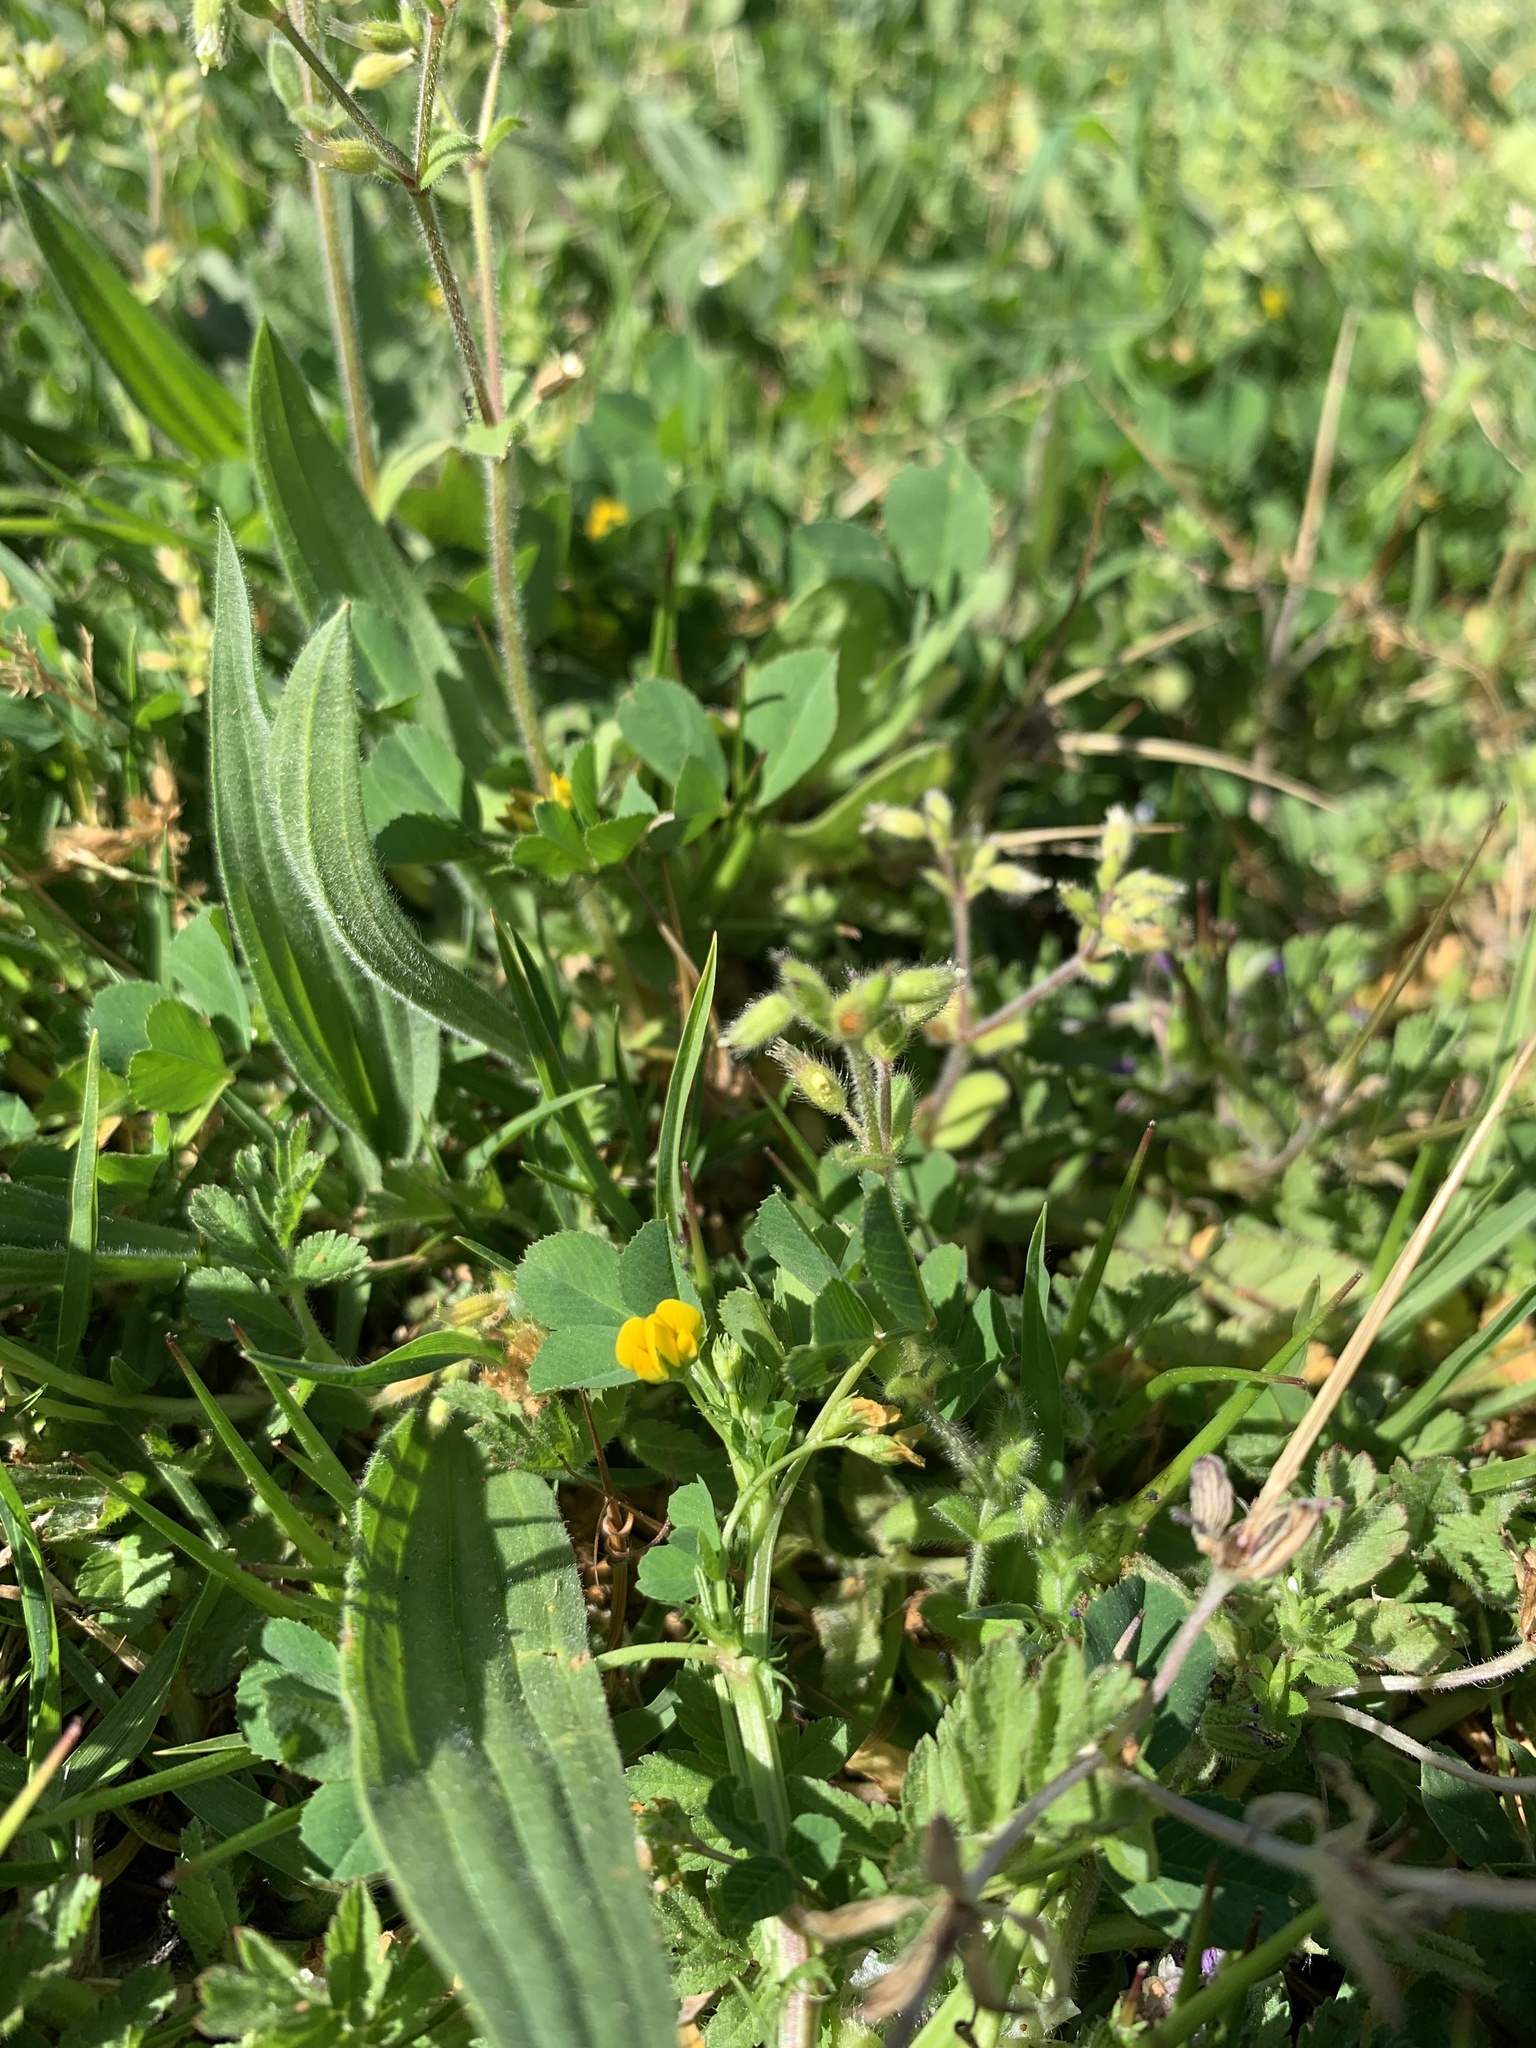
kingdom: Plantae
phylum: Tracheophyta
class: Magnoliopsida
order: Fabales
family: Fabaceae
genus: Medicago
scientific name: Medicago polymorpha
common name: Burclover
